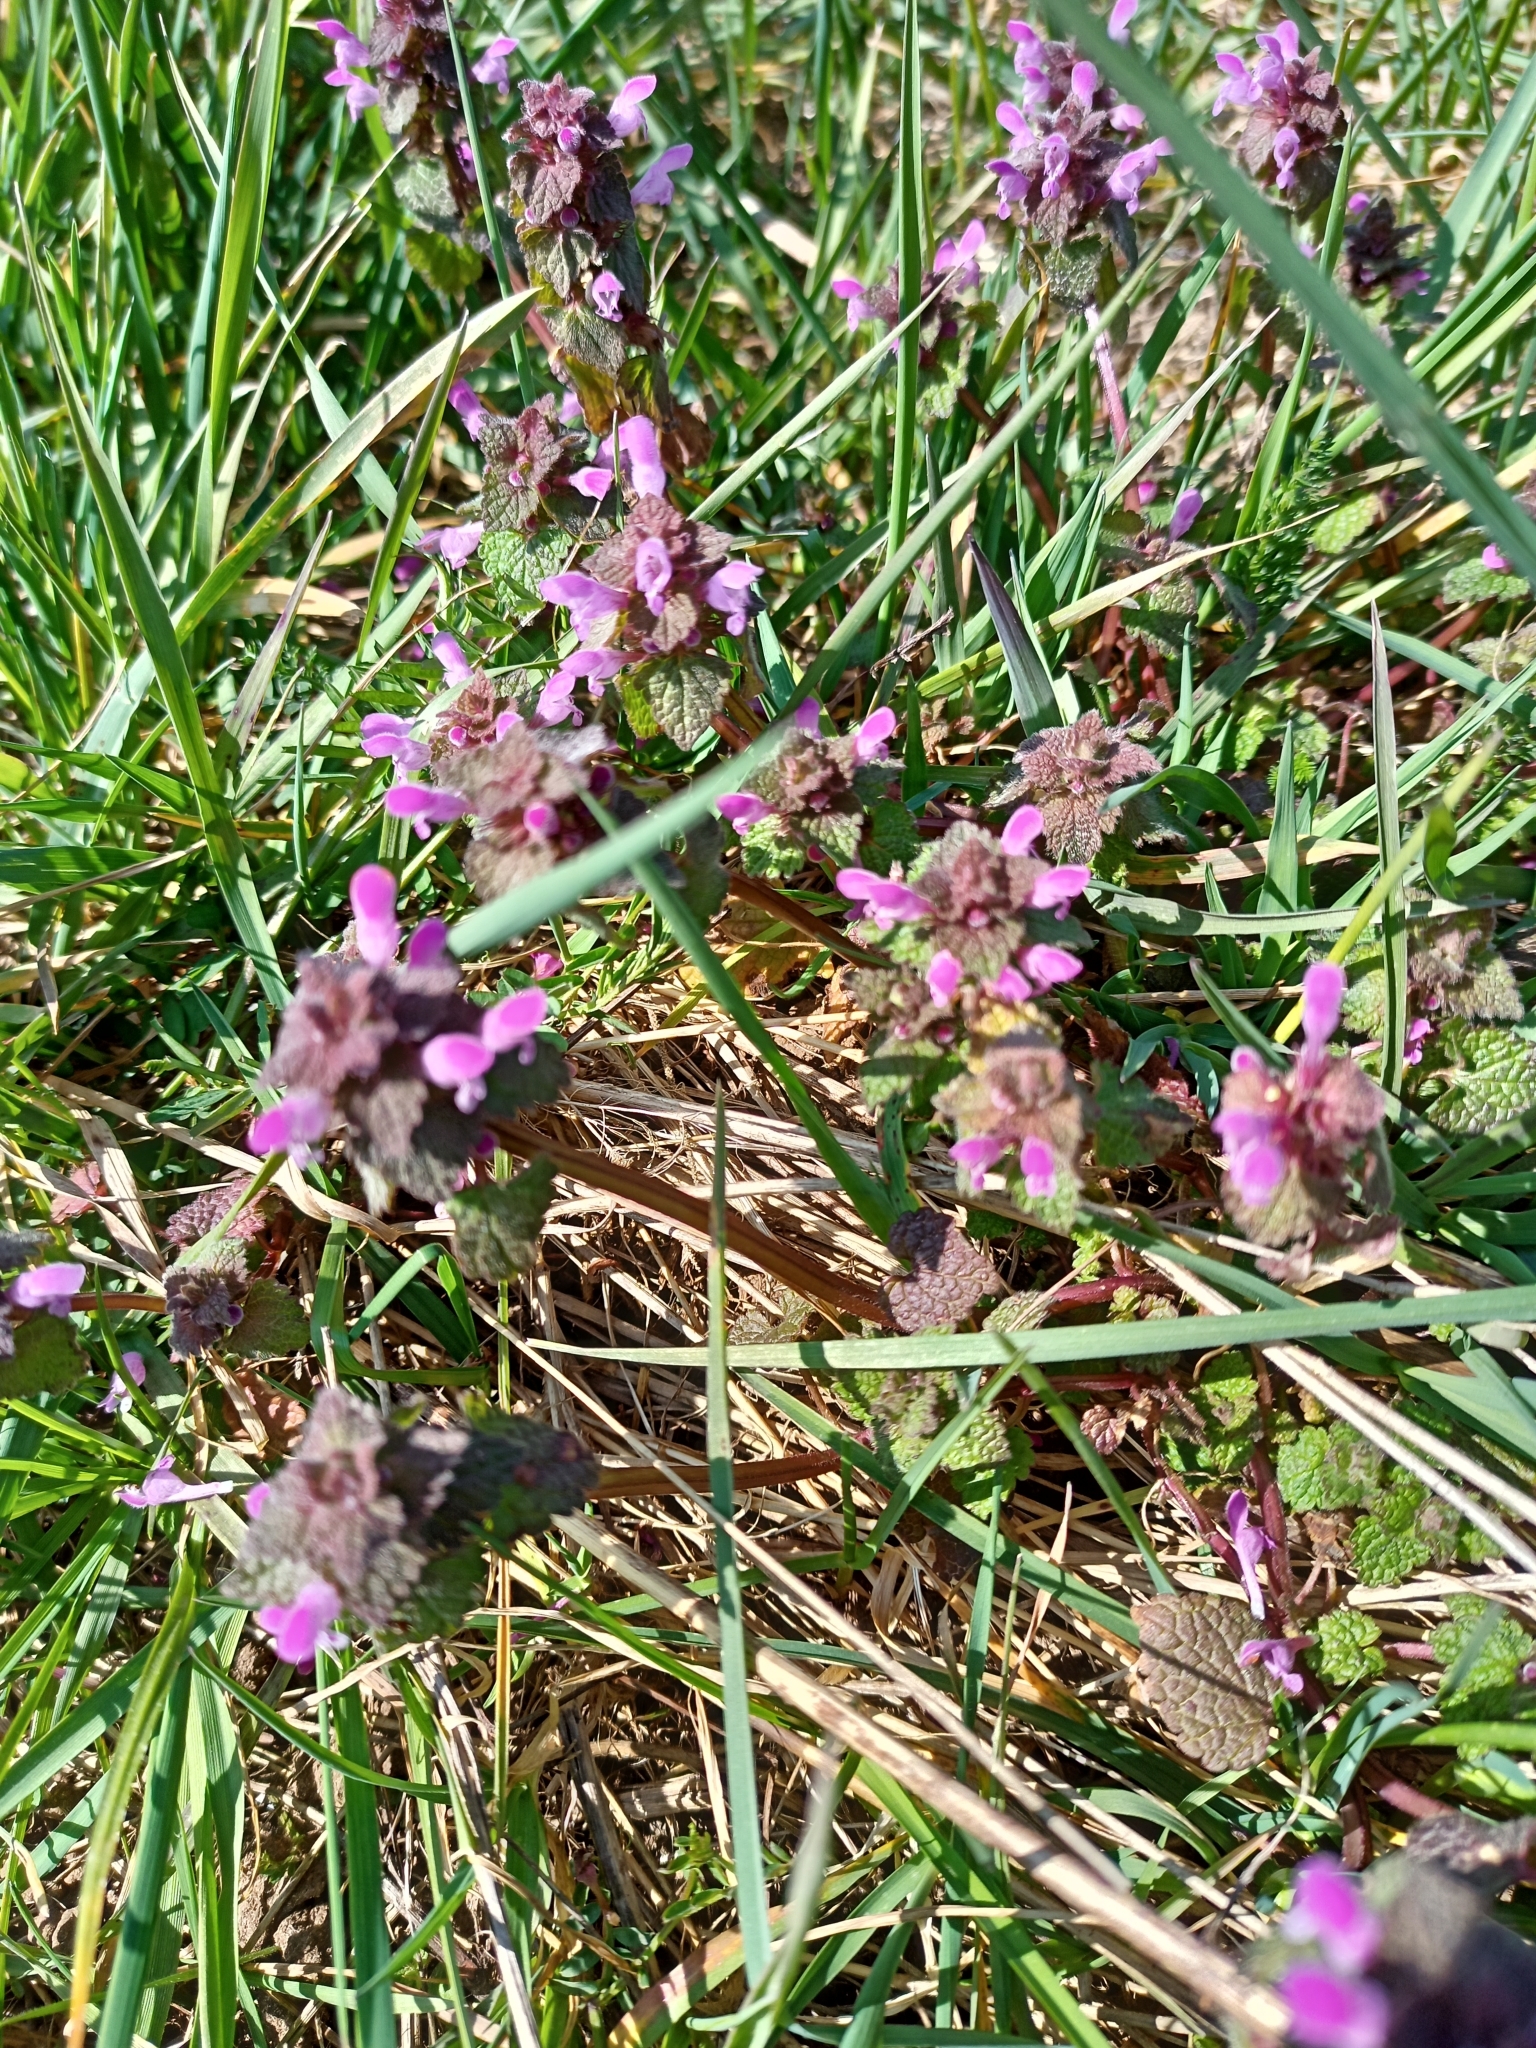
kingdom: Plantae
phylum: Tracheophyta
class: Magnoliopsida
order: Lamiales
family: Lamiaceae
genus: Lamium
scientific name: Lamium purpureum
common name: Red dead-nettle
